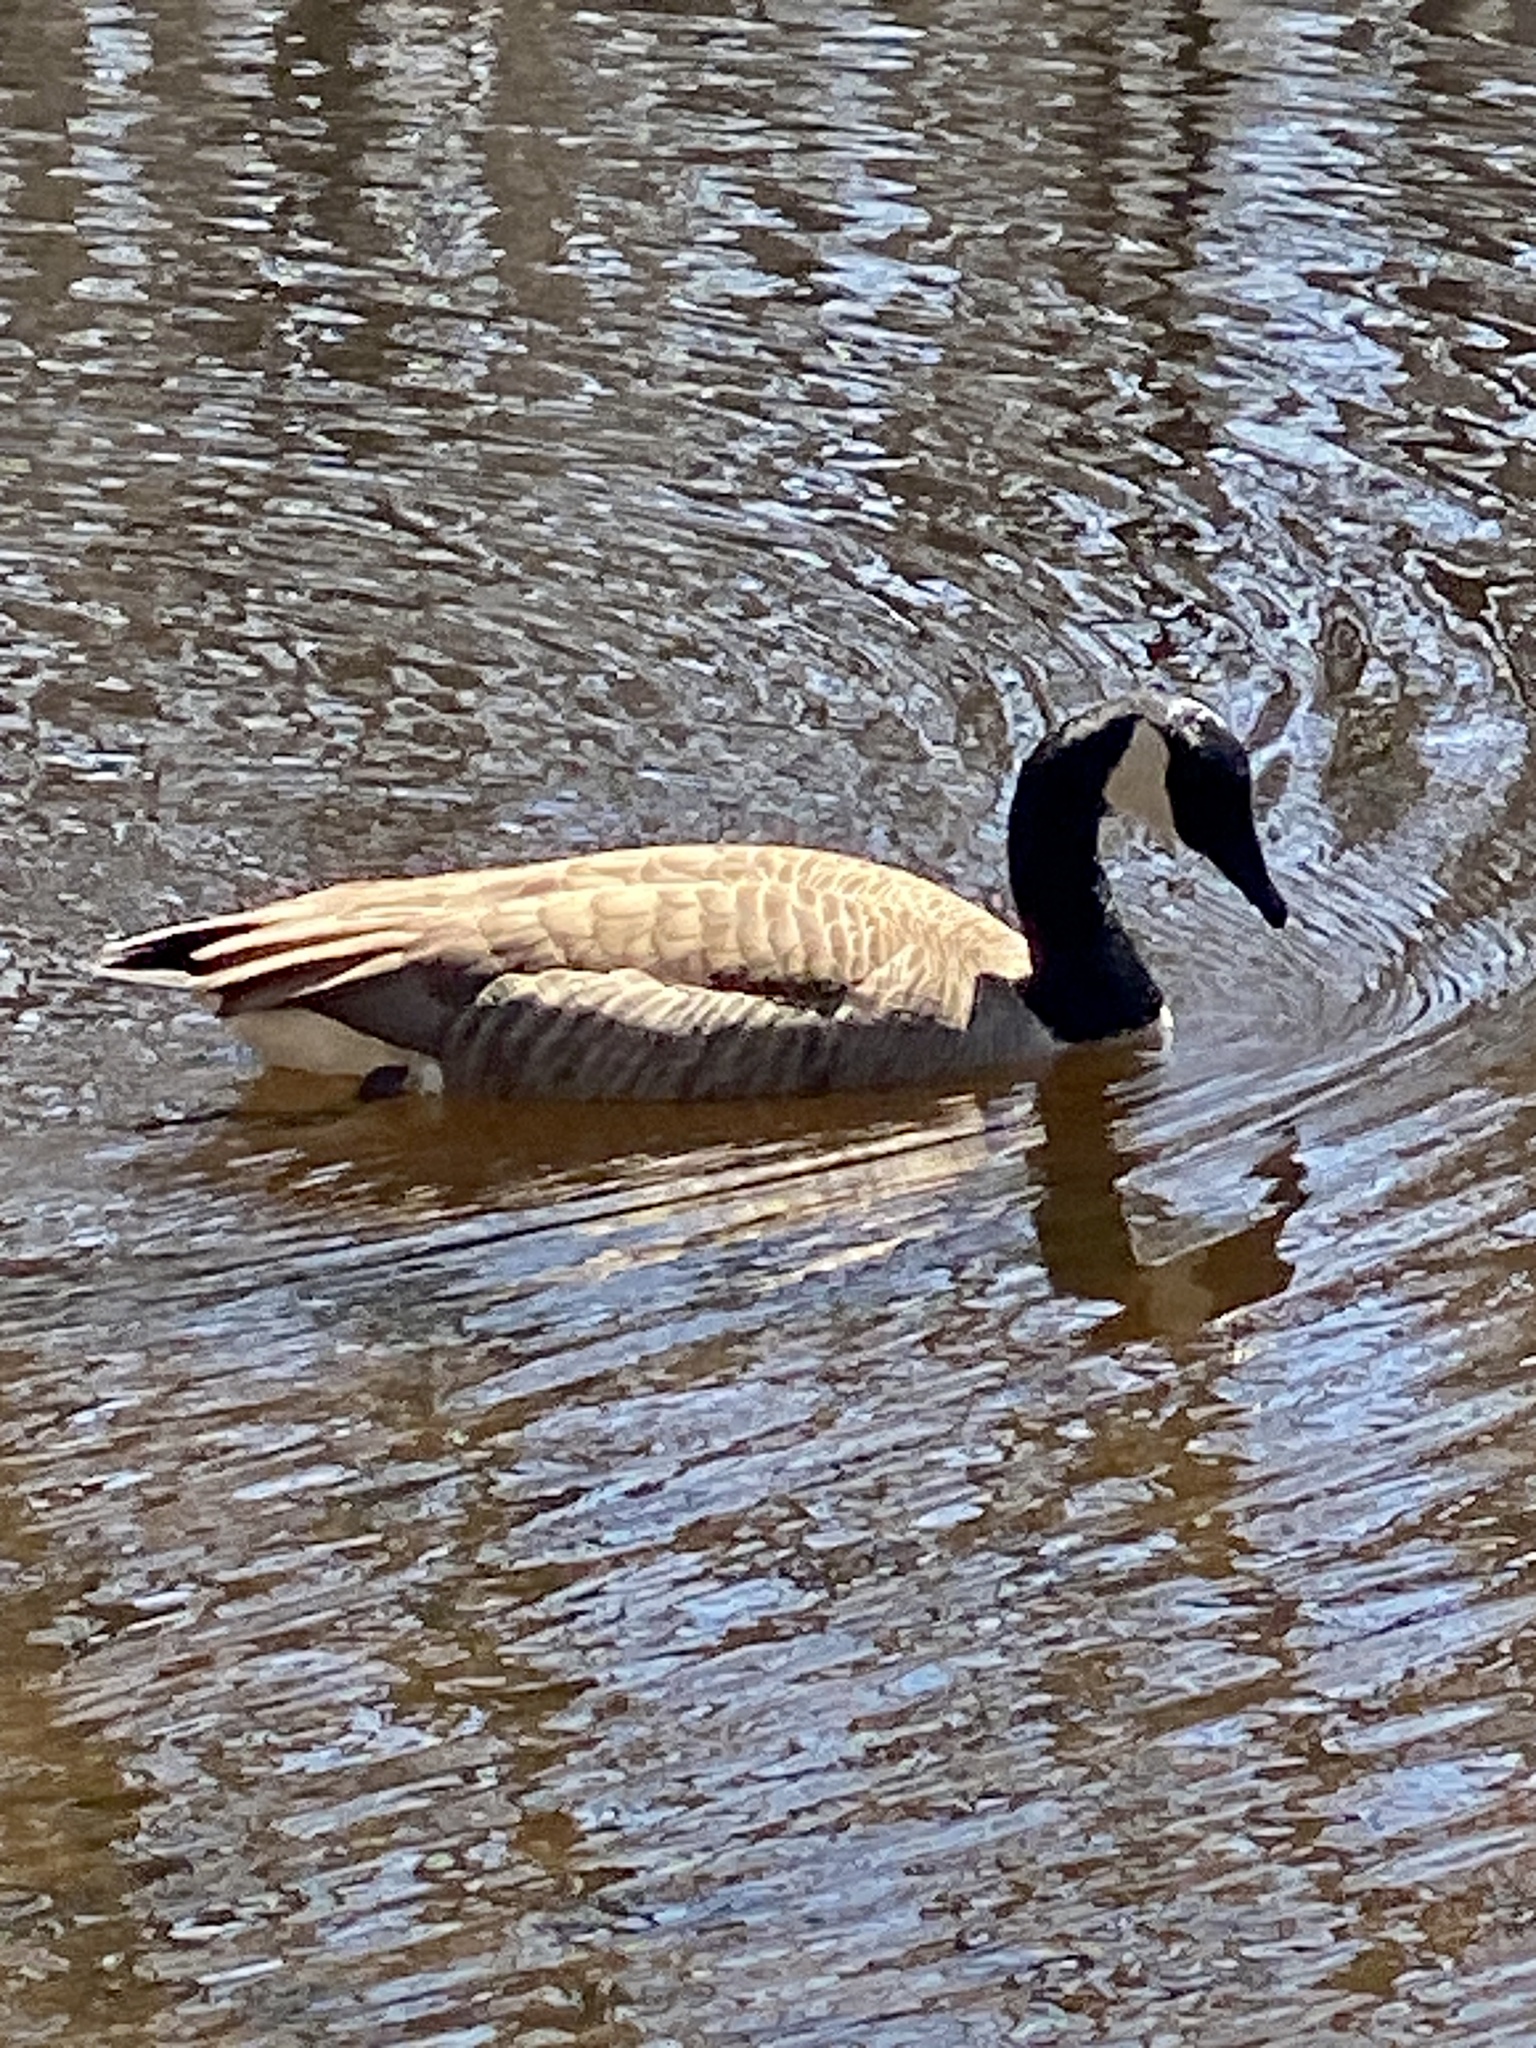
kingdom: Animalia
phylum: Chordata
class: Aves
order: Anseriformes
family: Anatidae
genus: Branta
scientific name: Branta canadensis
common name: Canada goose
